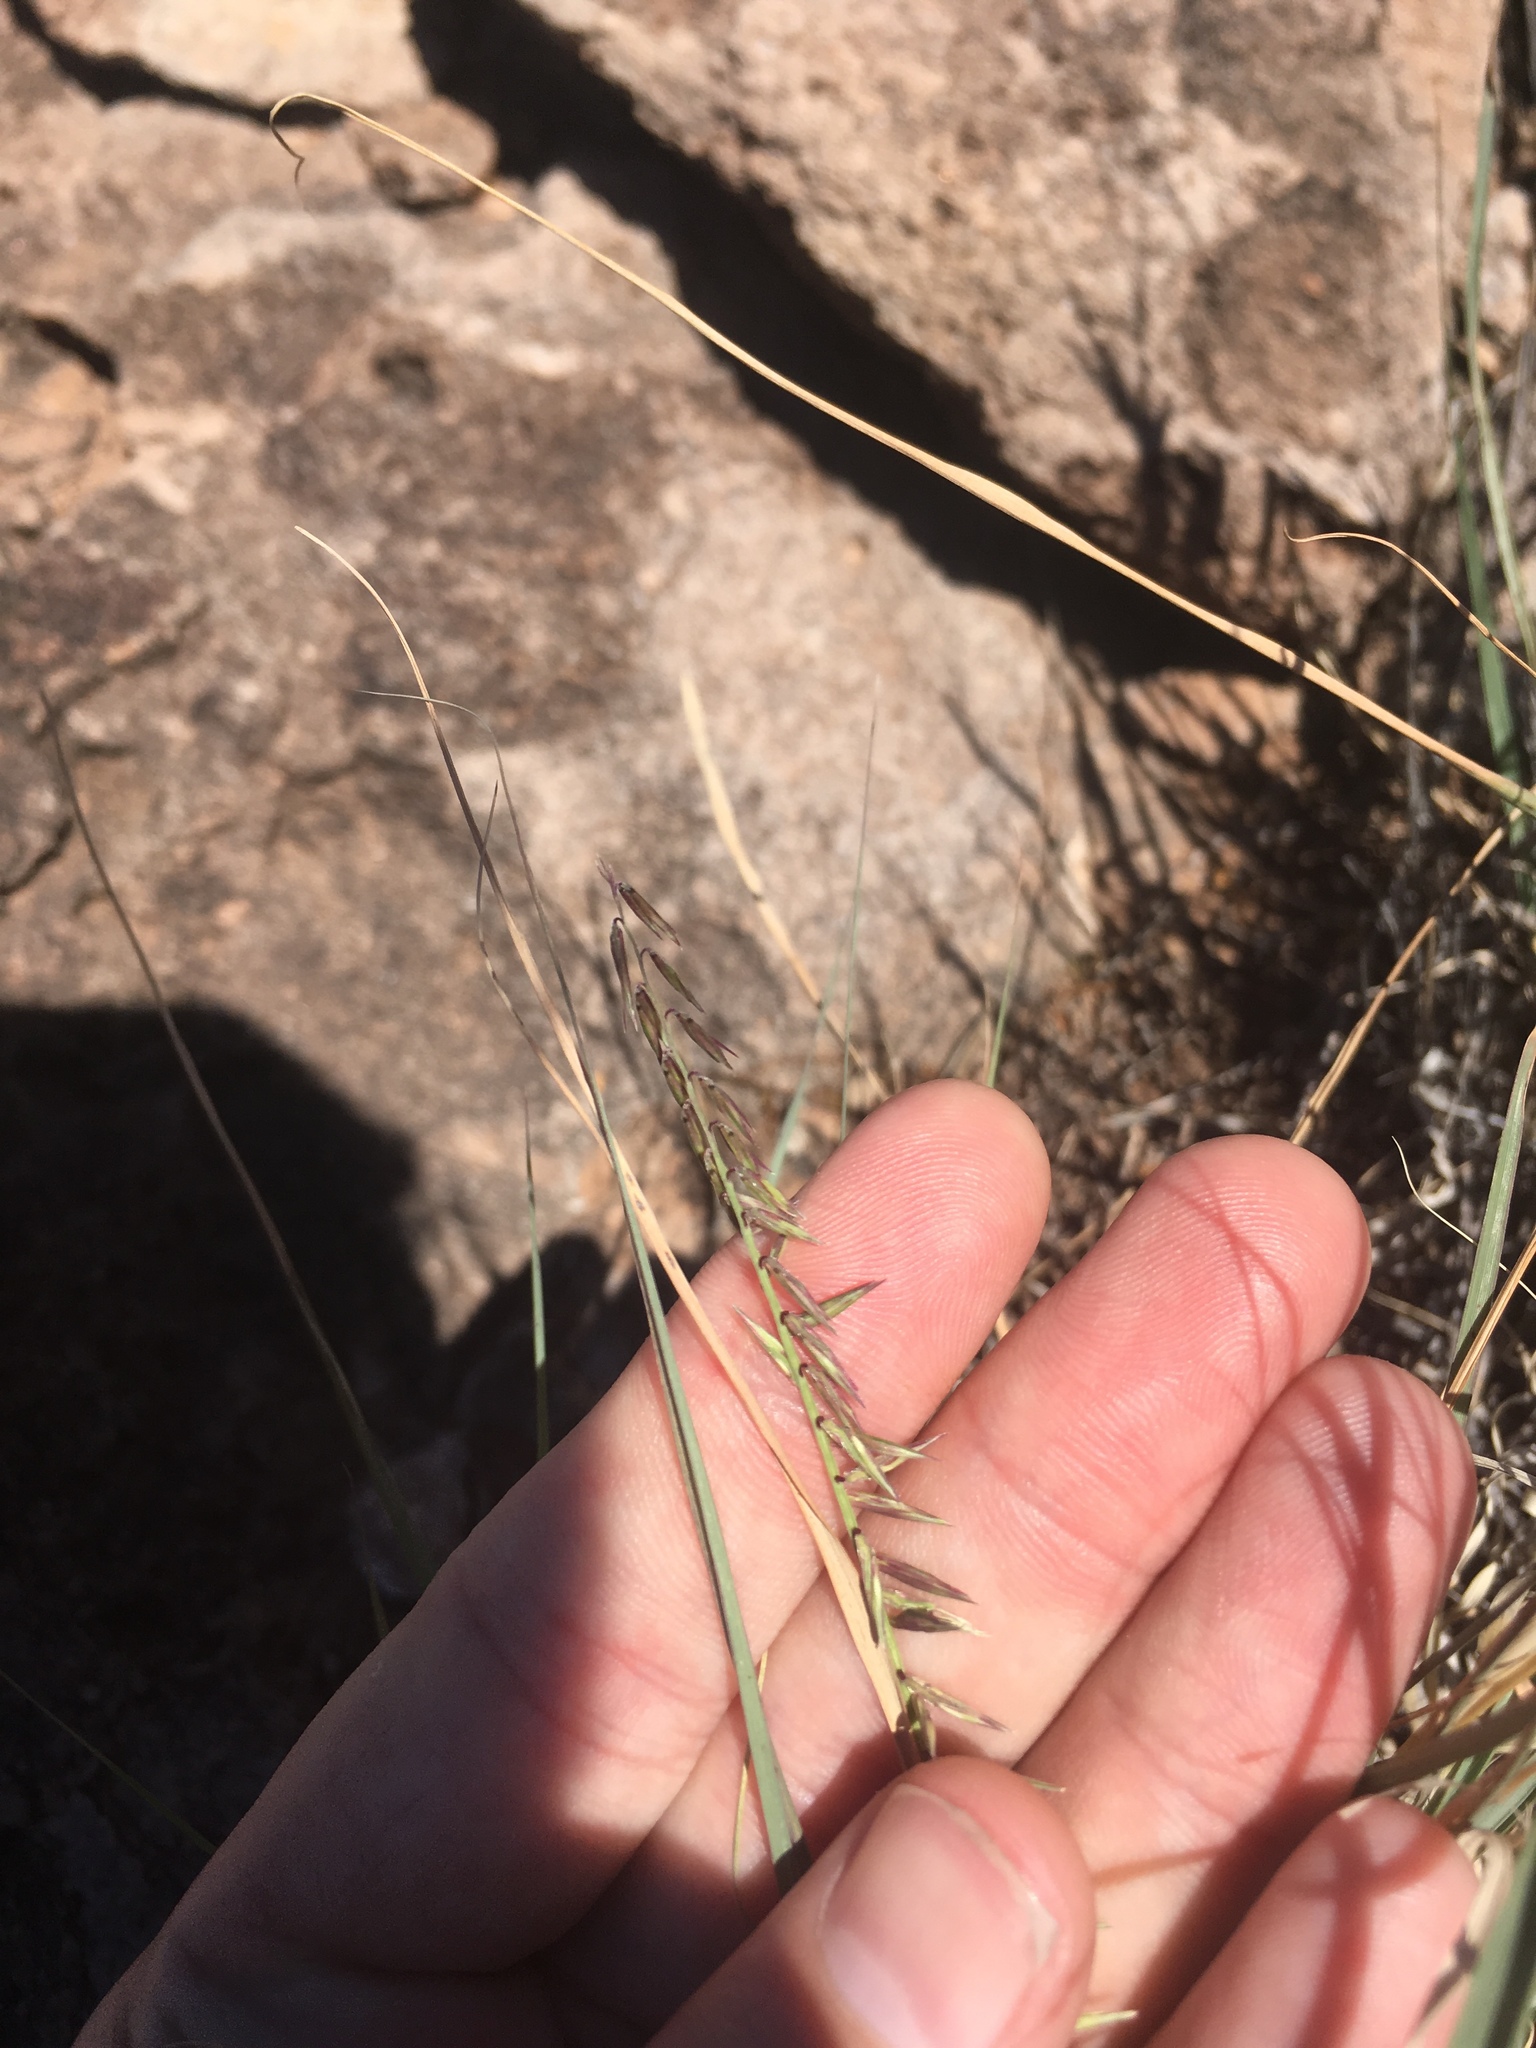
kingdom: Plantae
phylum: Tracheophyta
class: Liliopsida
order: Poales
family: Poaceae
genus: Bouteloua
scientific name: Bouteloua curtipendula
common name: Side-oats grama
